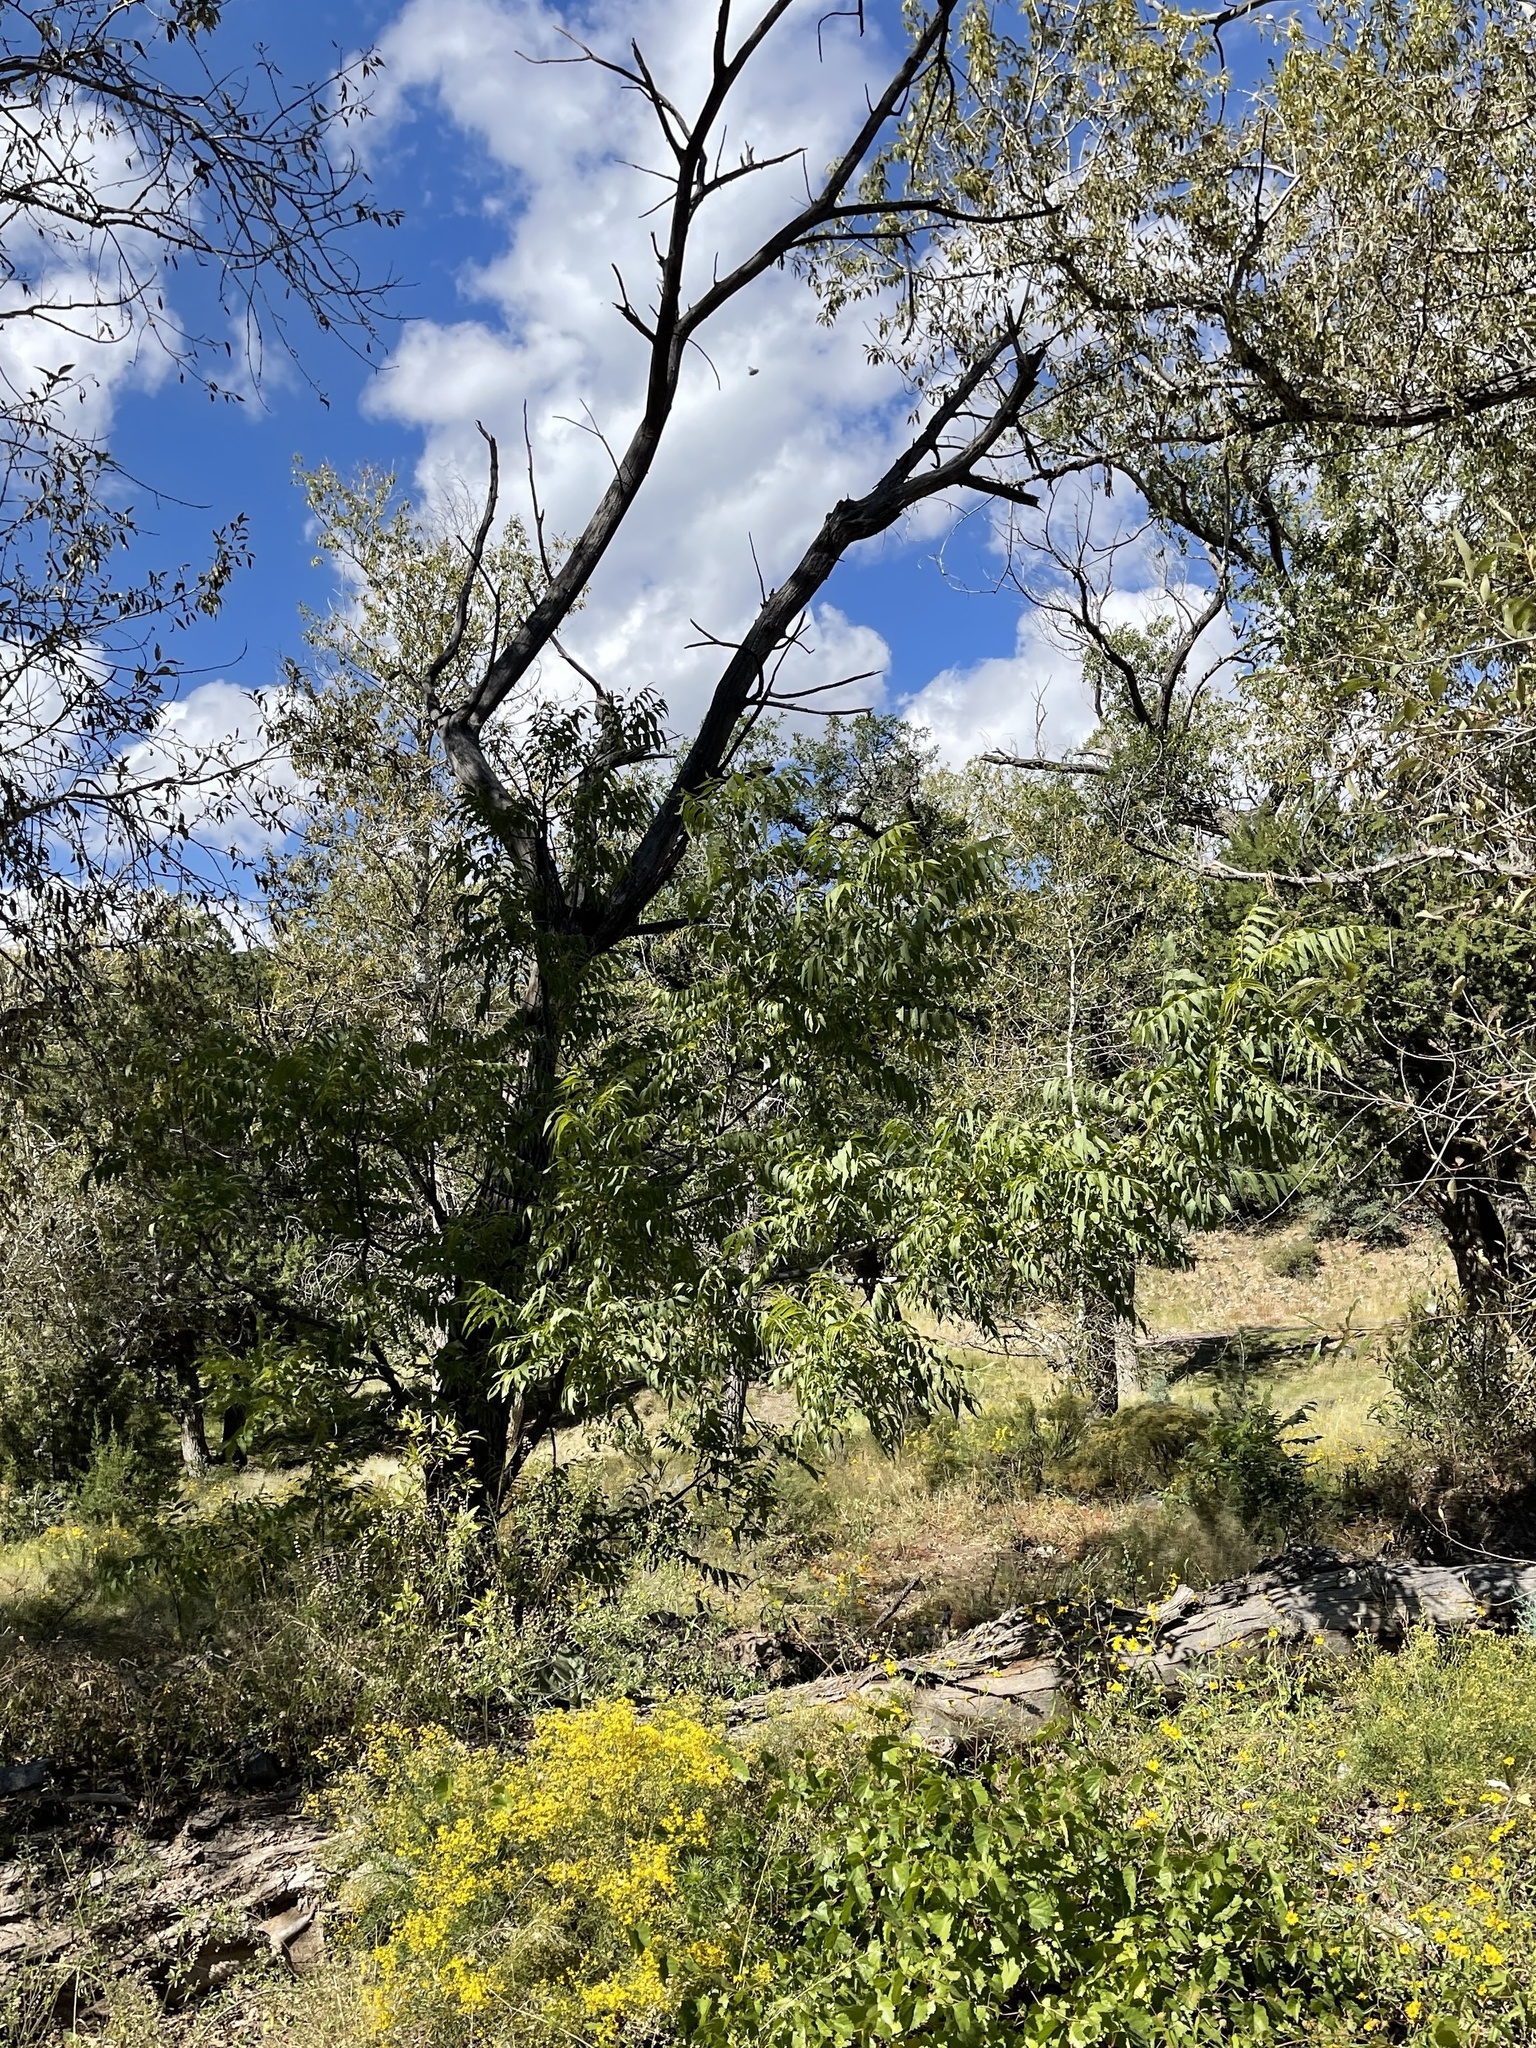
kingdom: Plantae
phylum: Tracheophyta
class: Magnoliopsida
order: Fagales
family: Juglandaceae
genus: Juglans
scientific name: Juglans major
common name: Arizona walnut
